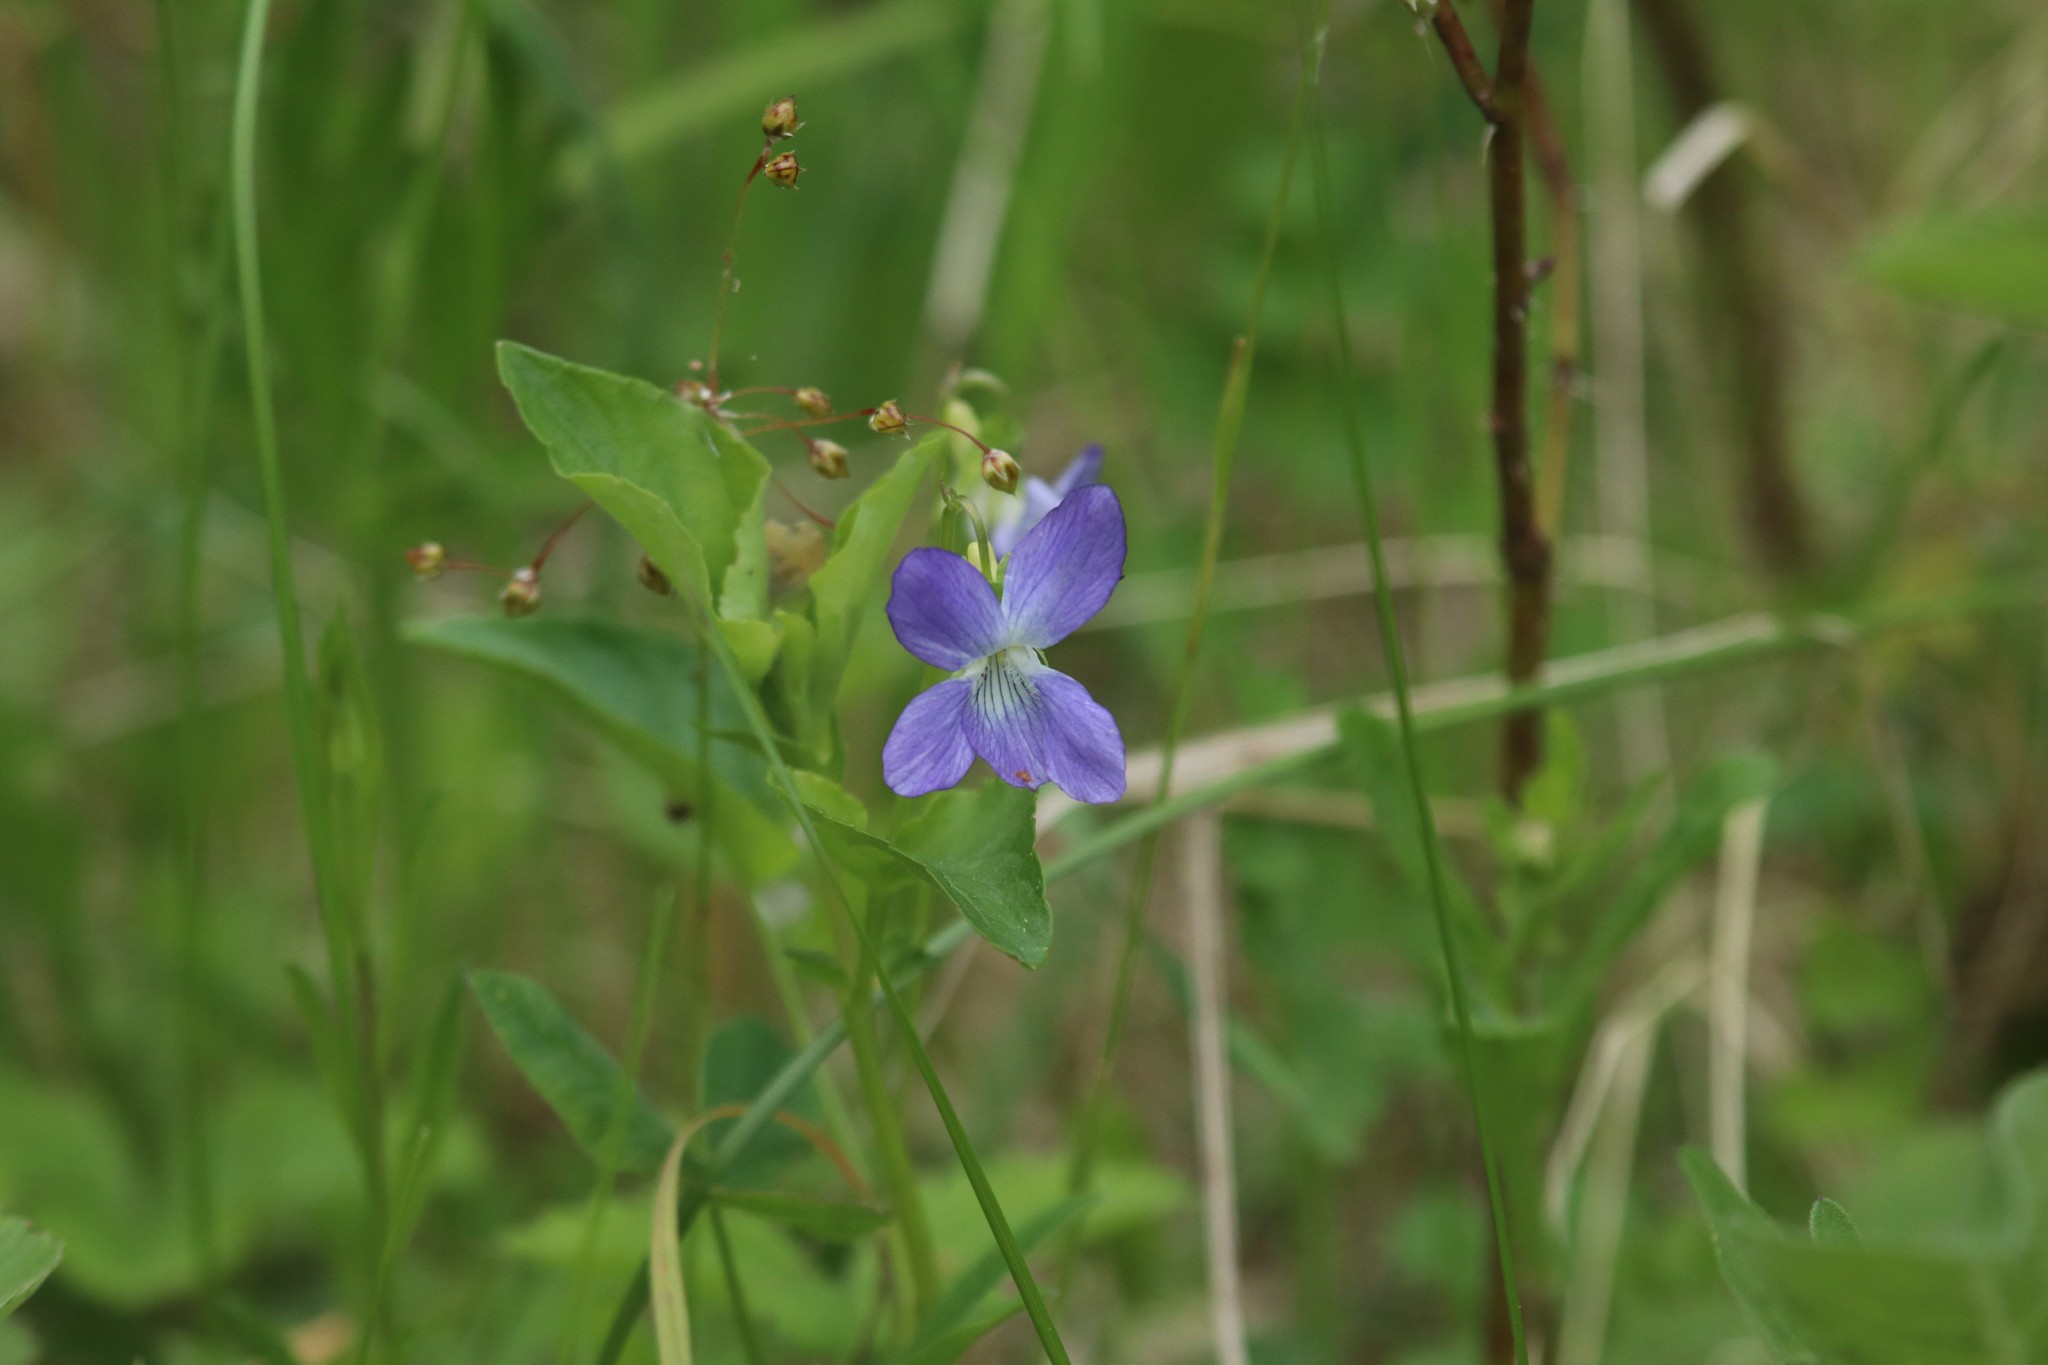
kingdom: Plantae
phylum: Tracheophyta
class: Magnoliopsida
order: Malpighiales
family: Violaceae
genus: Viola
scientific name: Viola
